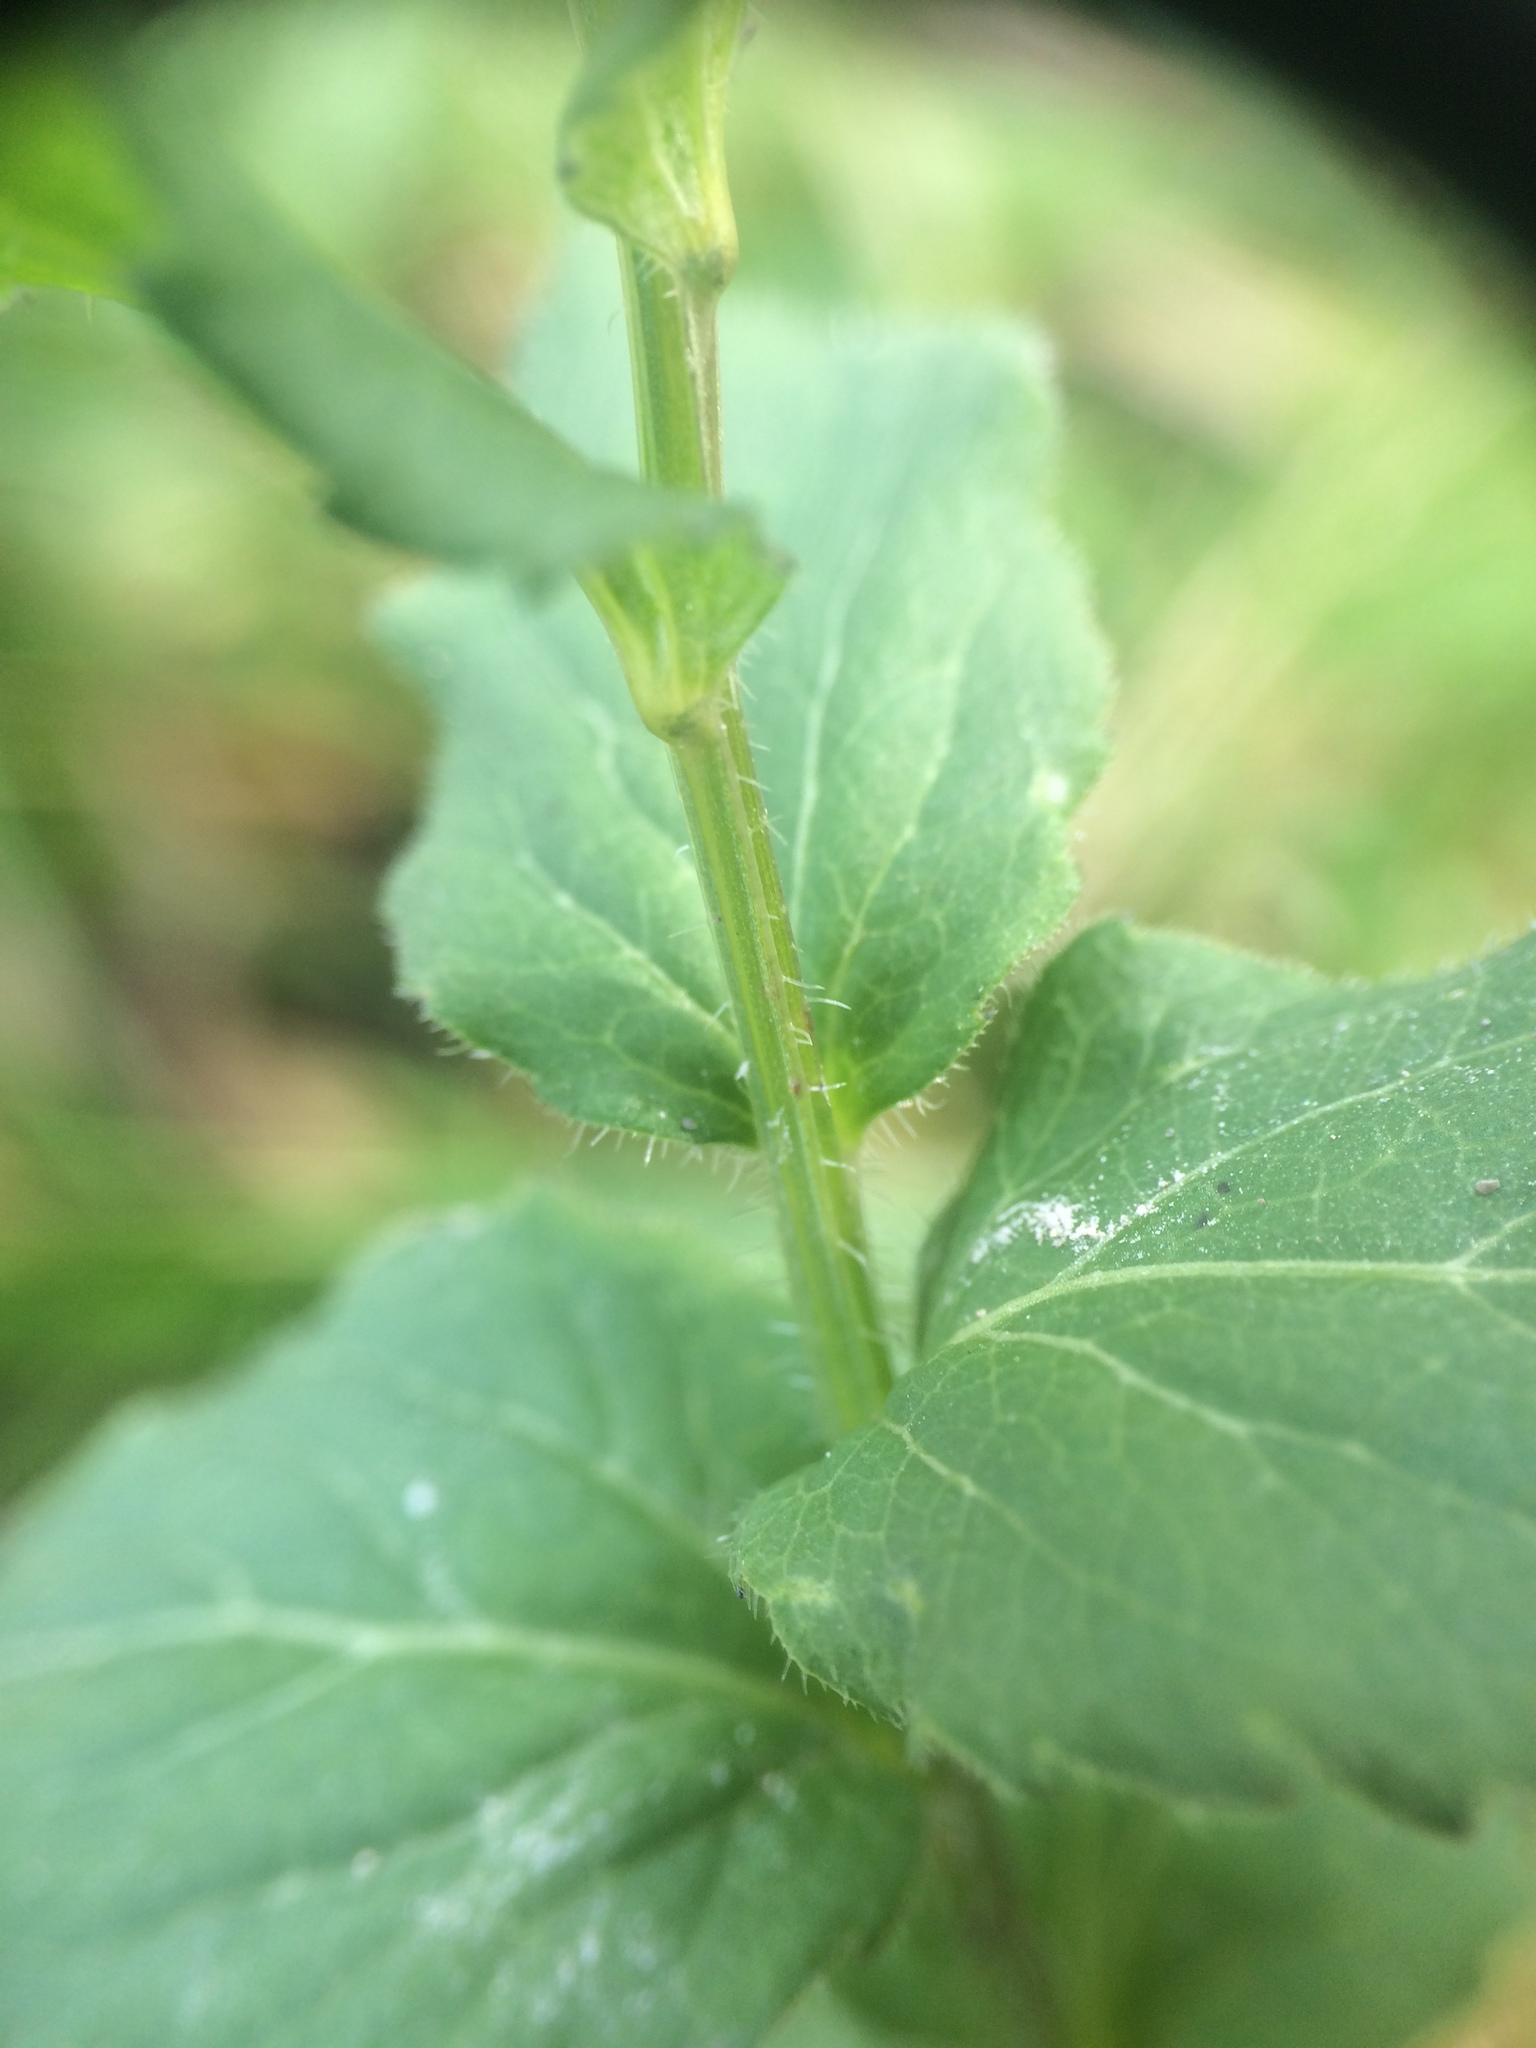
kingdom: Plantae
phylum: Tracheophyta
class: Magnoliopsida
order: Asterales
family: Campanulaceae
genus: Campanula
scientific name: Campanula rhomboidalis
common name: Broad-leaved harebell
